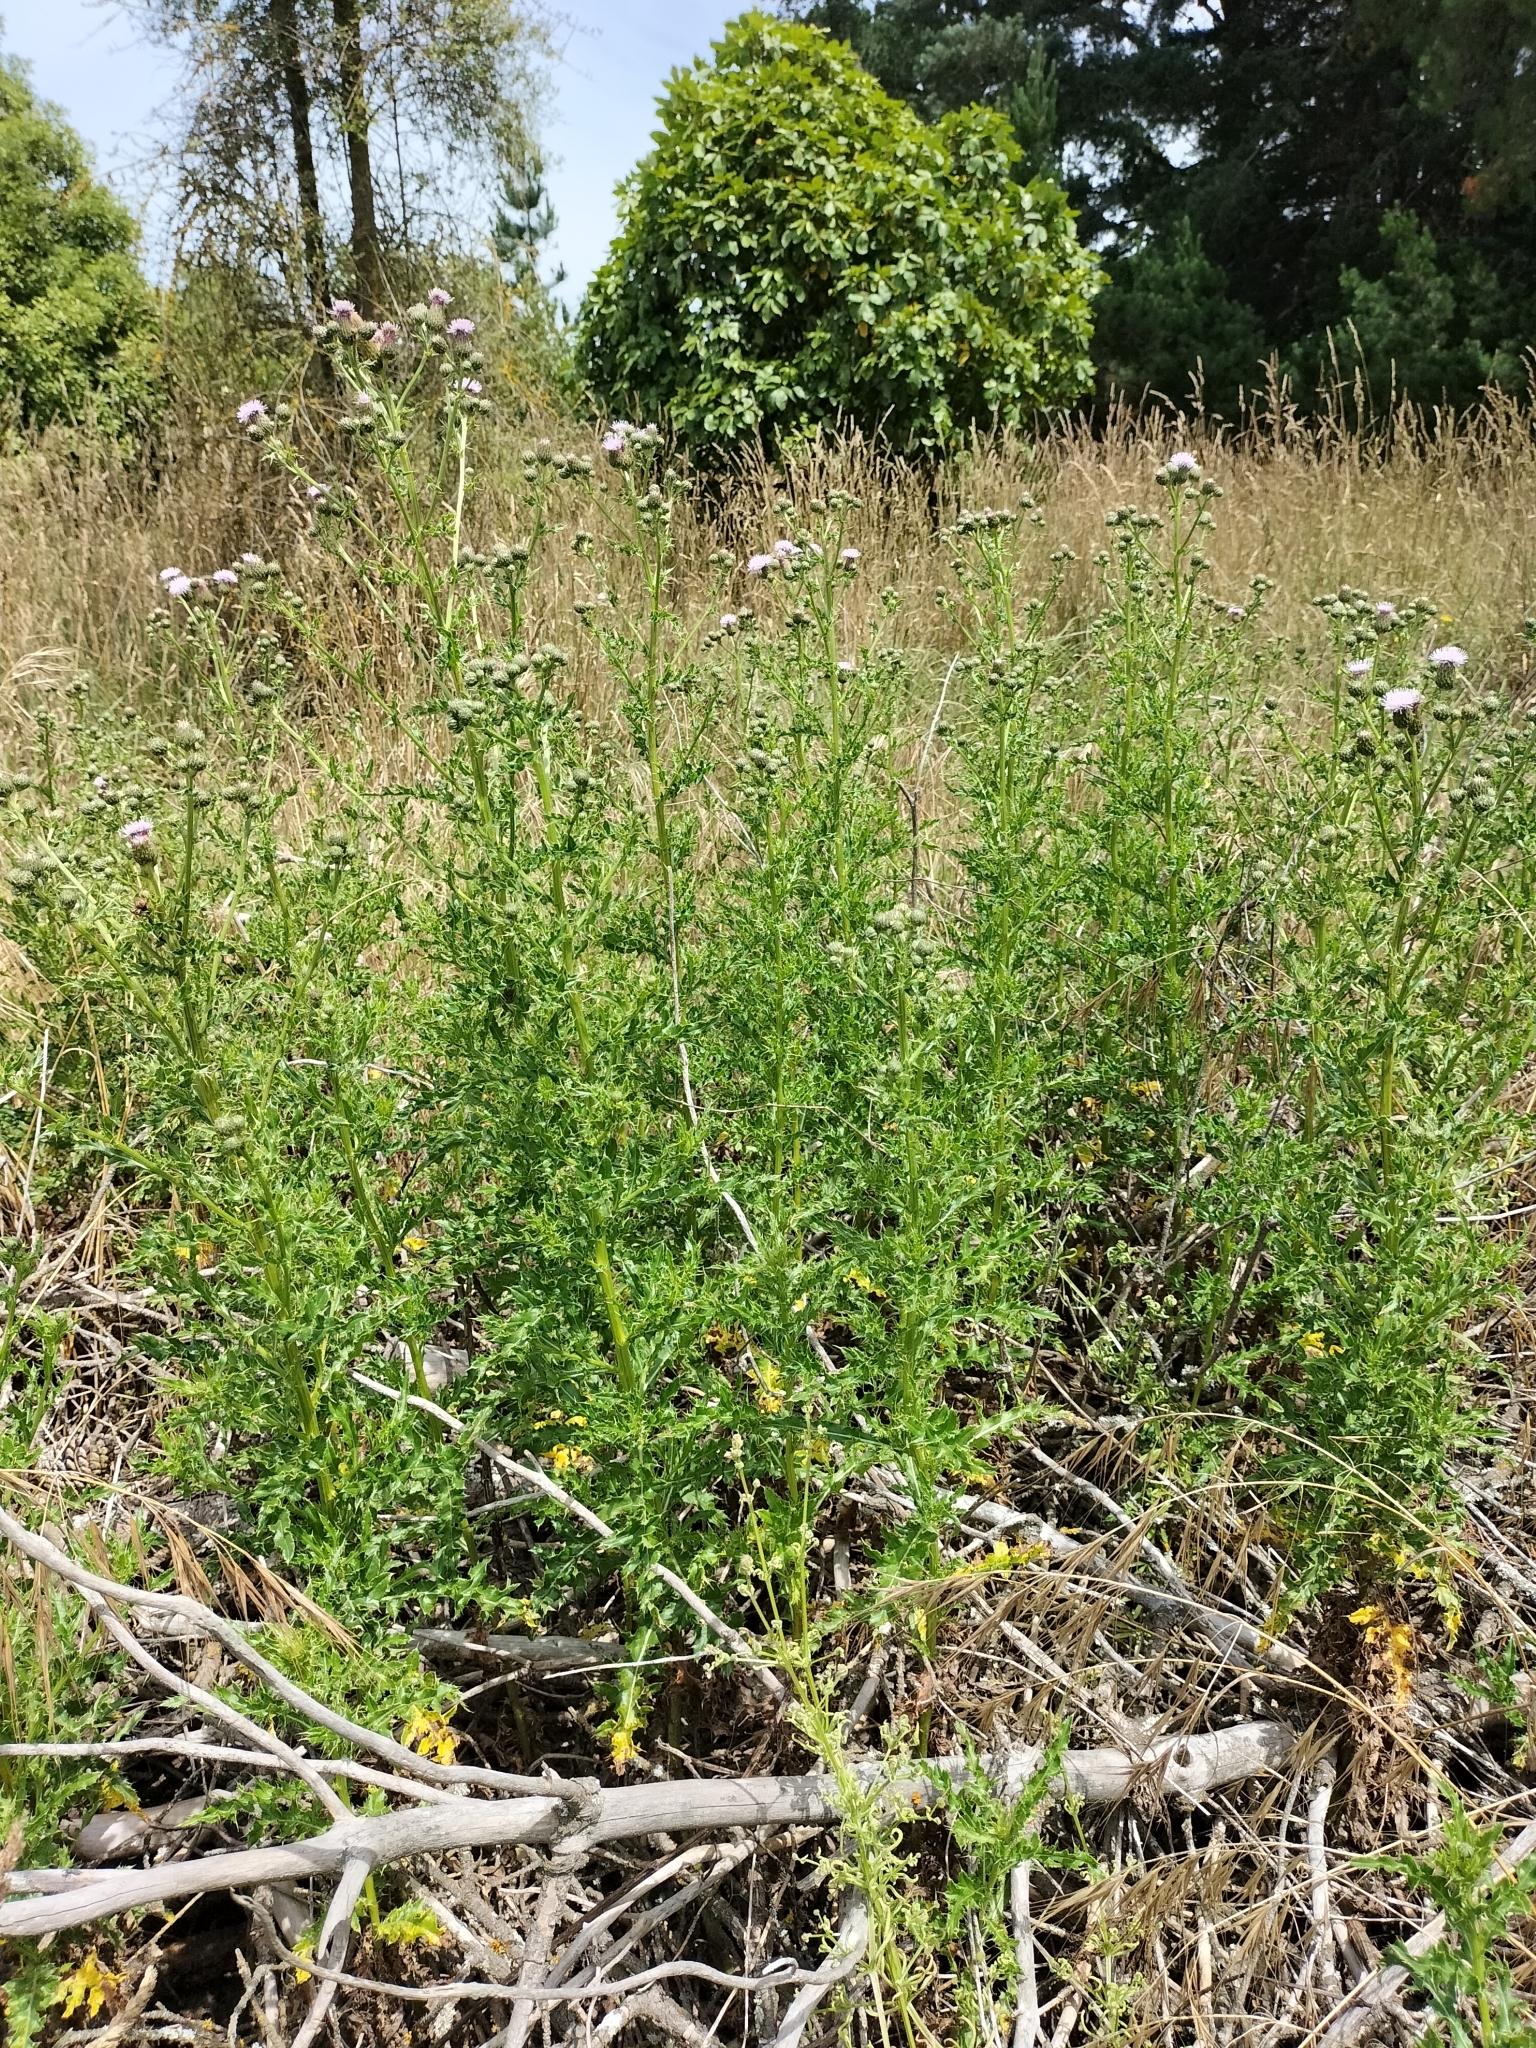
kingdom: Plantae
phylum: Tracheophyta
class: Magnoliopsida
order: Asterales
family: Asteraceae
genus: Cirsium
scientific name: Cirsium arvense
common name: Creeping thistle
